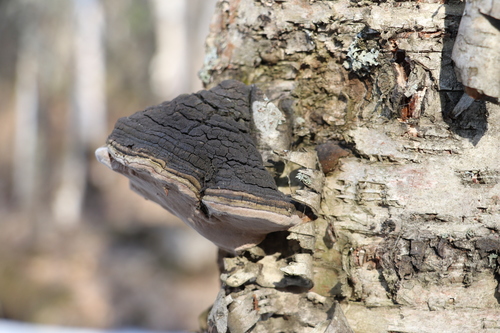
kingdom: Fungi
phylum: Basidiomycota
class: Agaricomycetes
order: Hymenochaetales
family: Hymenochaetaceae
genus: Phellinus
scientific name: Phellinus igniarius
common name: Willow bracket
